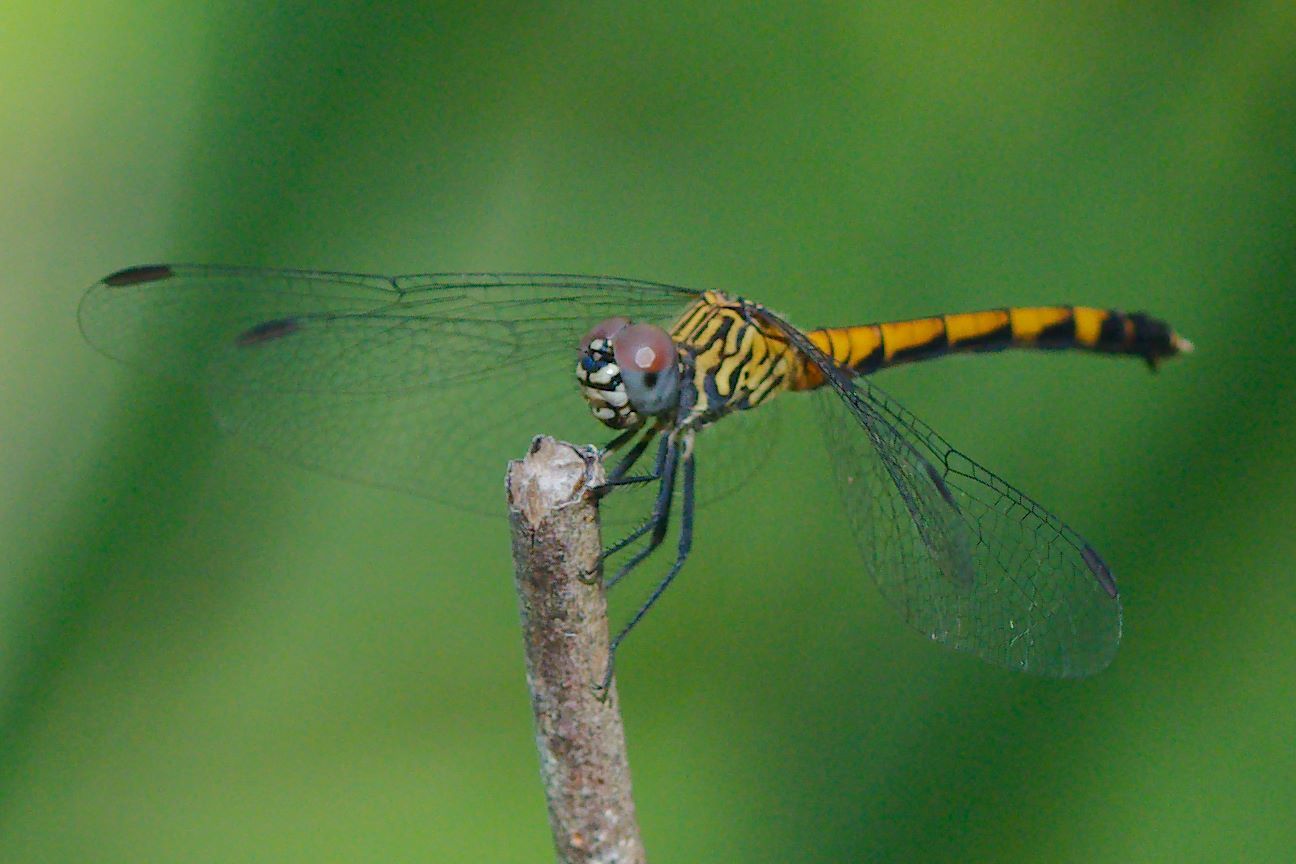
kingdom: Animalia
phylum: Arthropoda
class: Insecta
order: Odonata
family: Libellulidae
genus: Erythrodiplax
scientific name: Erythrodiplax berenice
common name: Seaside dragonlet
